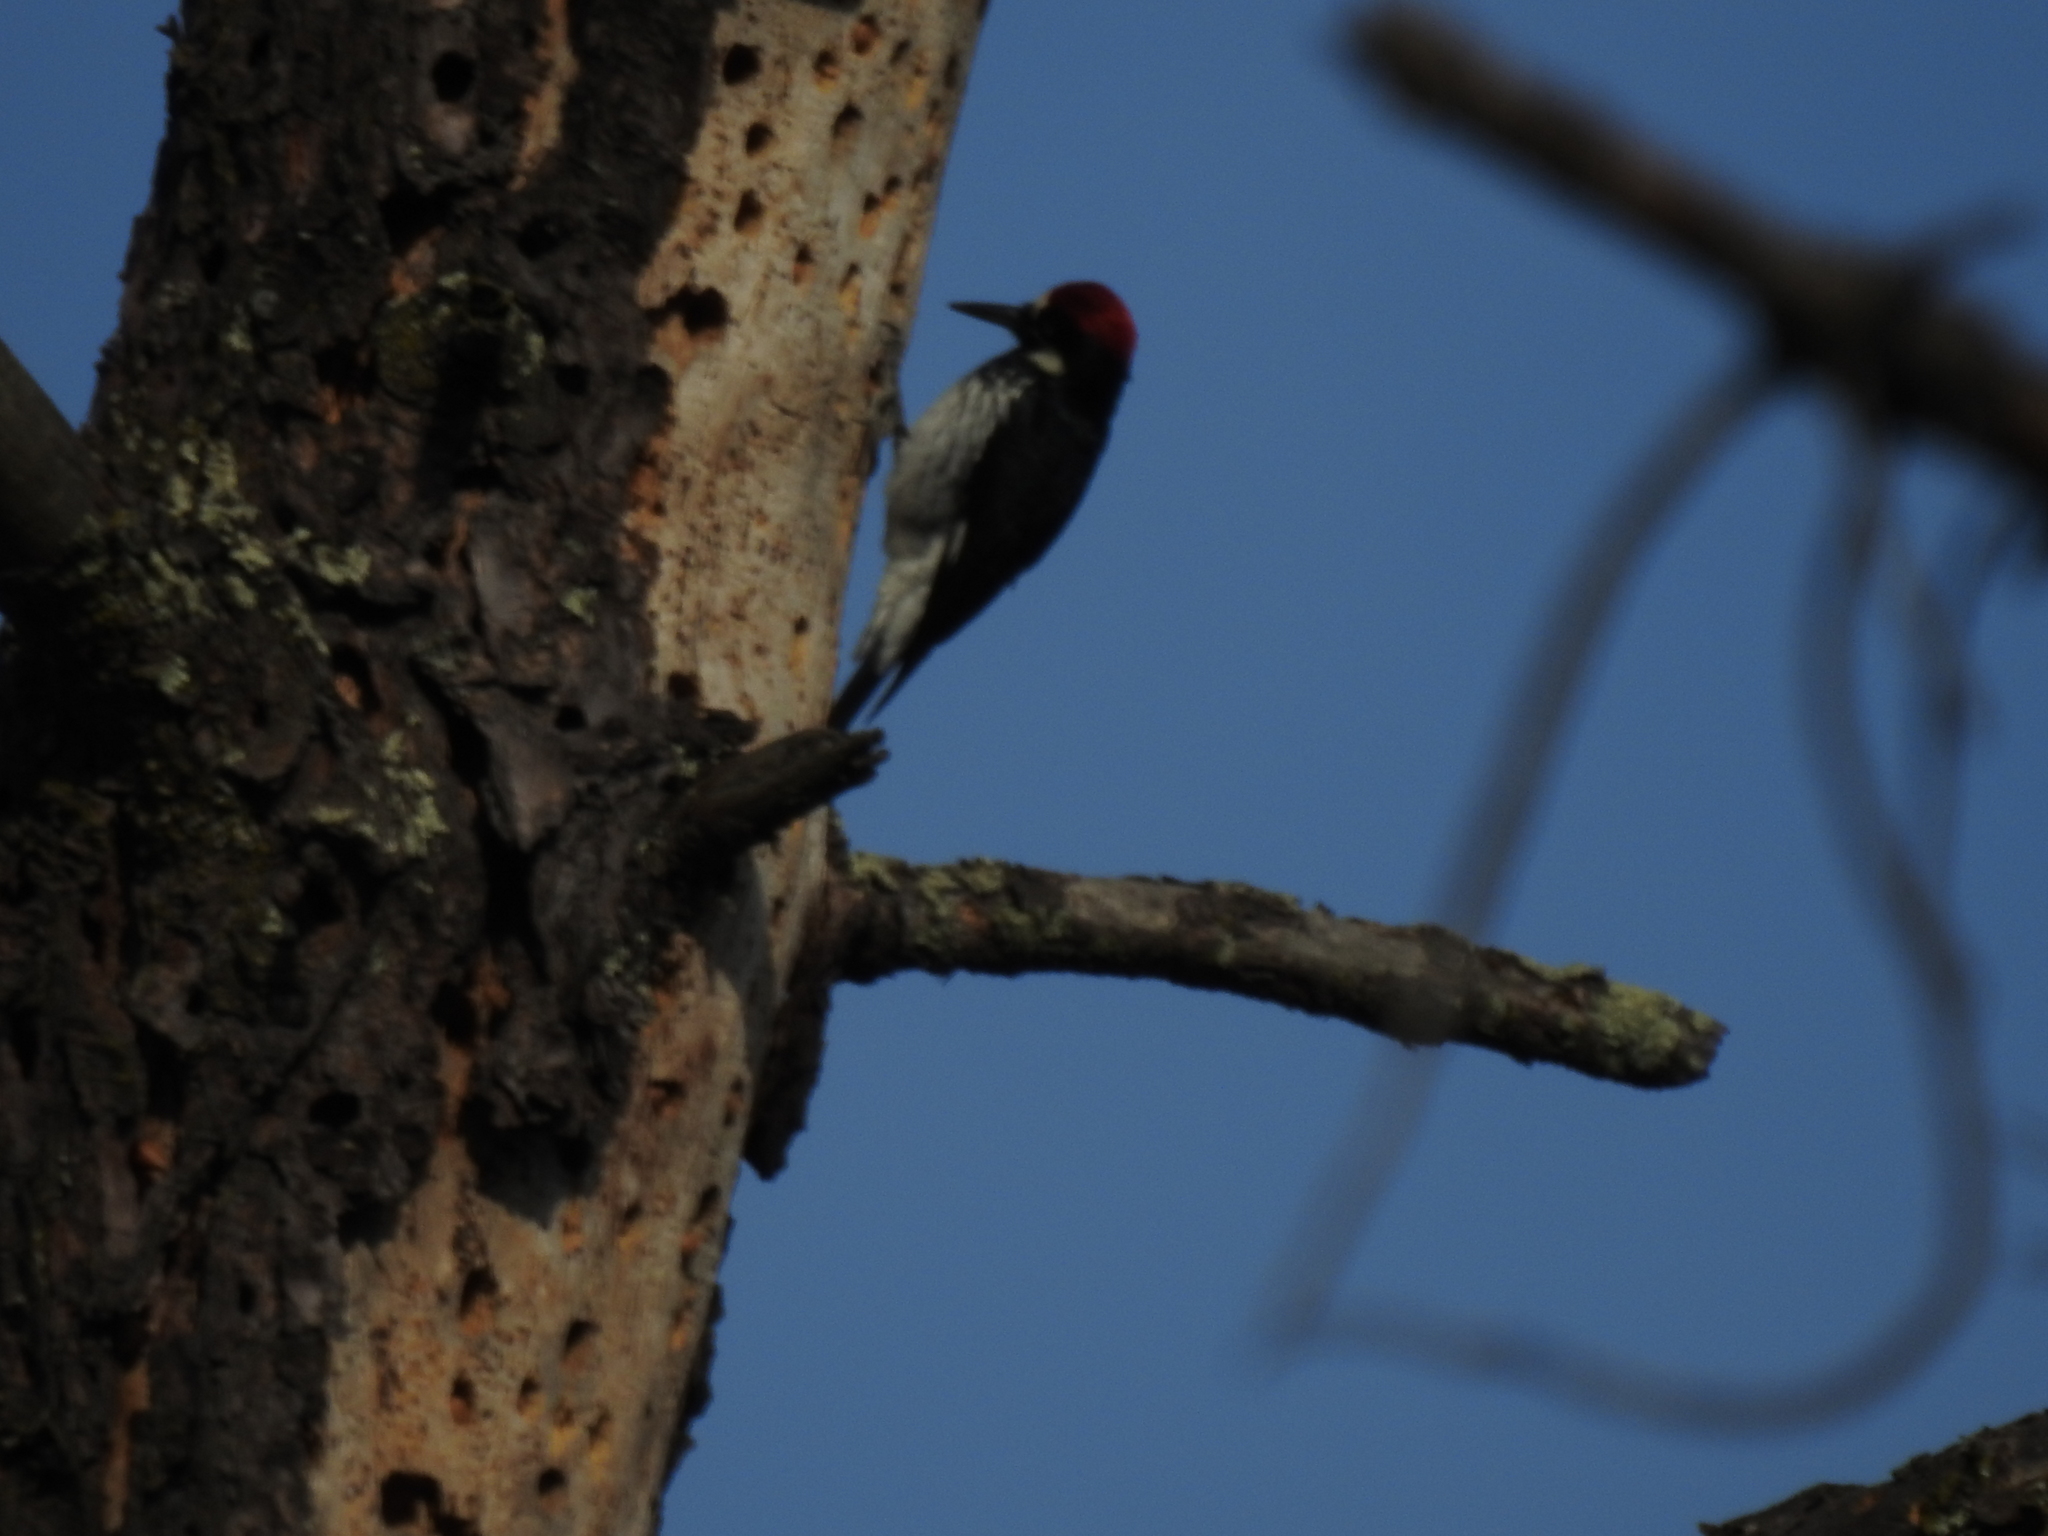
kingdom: Animalia
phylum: Chordata
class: Aves
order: Piciformes
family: Picidae
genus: Melanerpes
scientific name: Melanerpes formicivorus
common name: Acorn woodpecker
